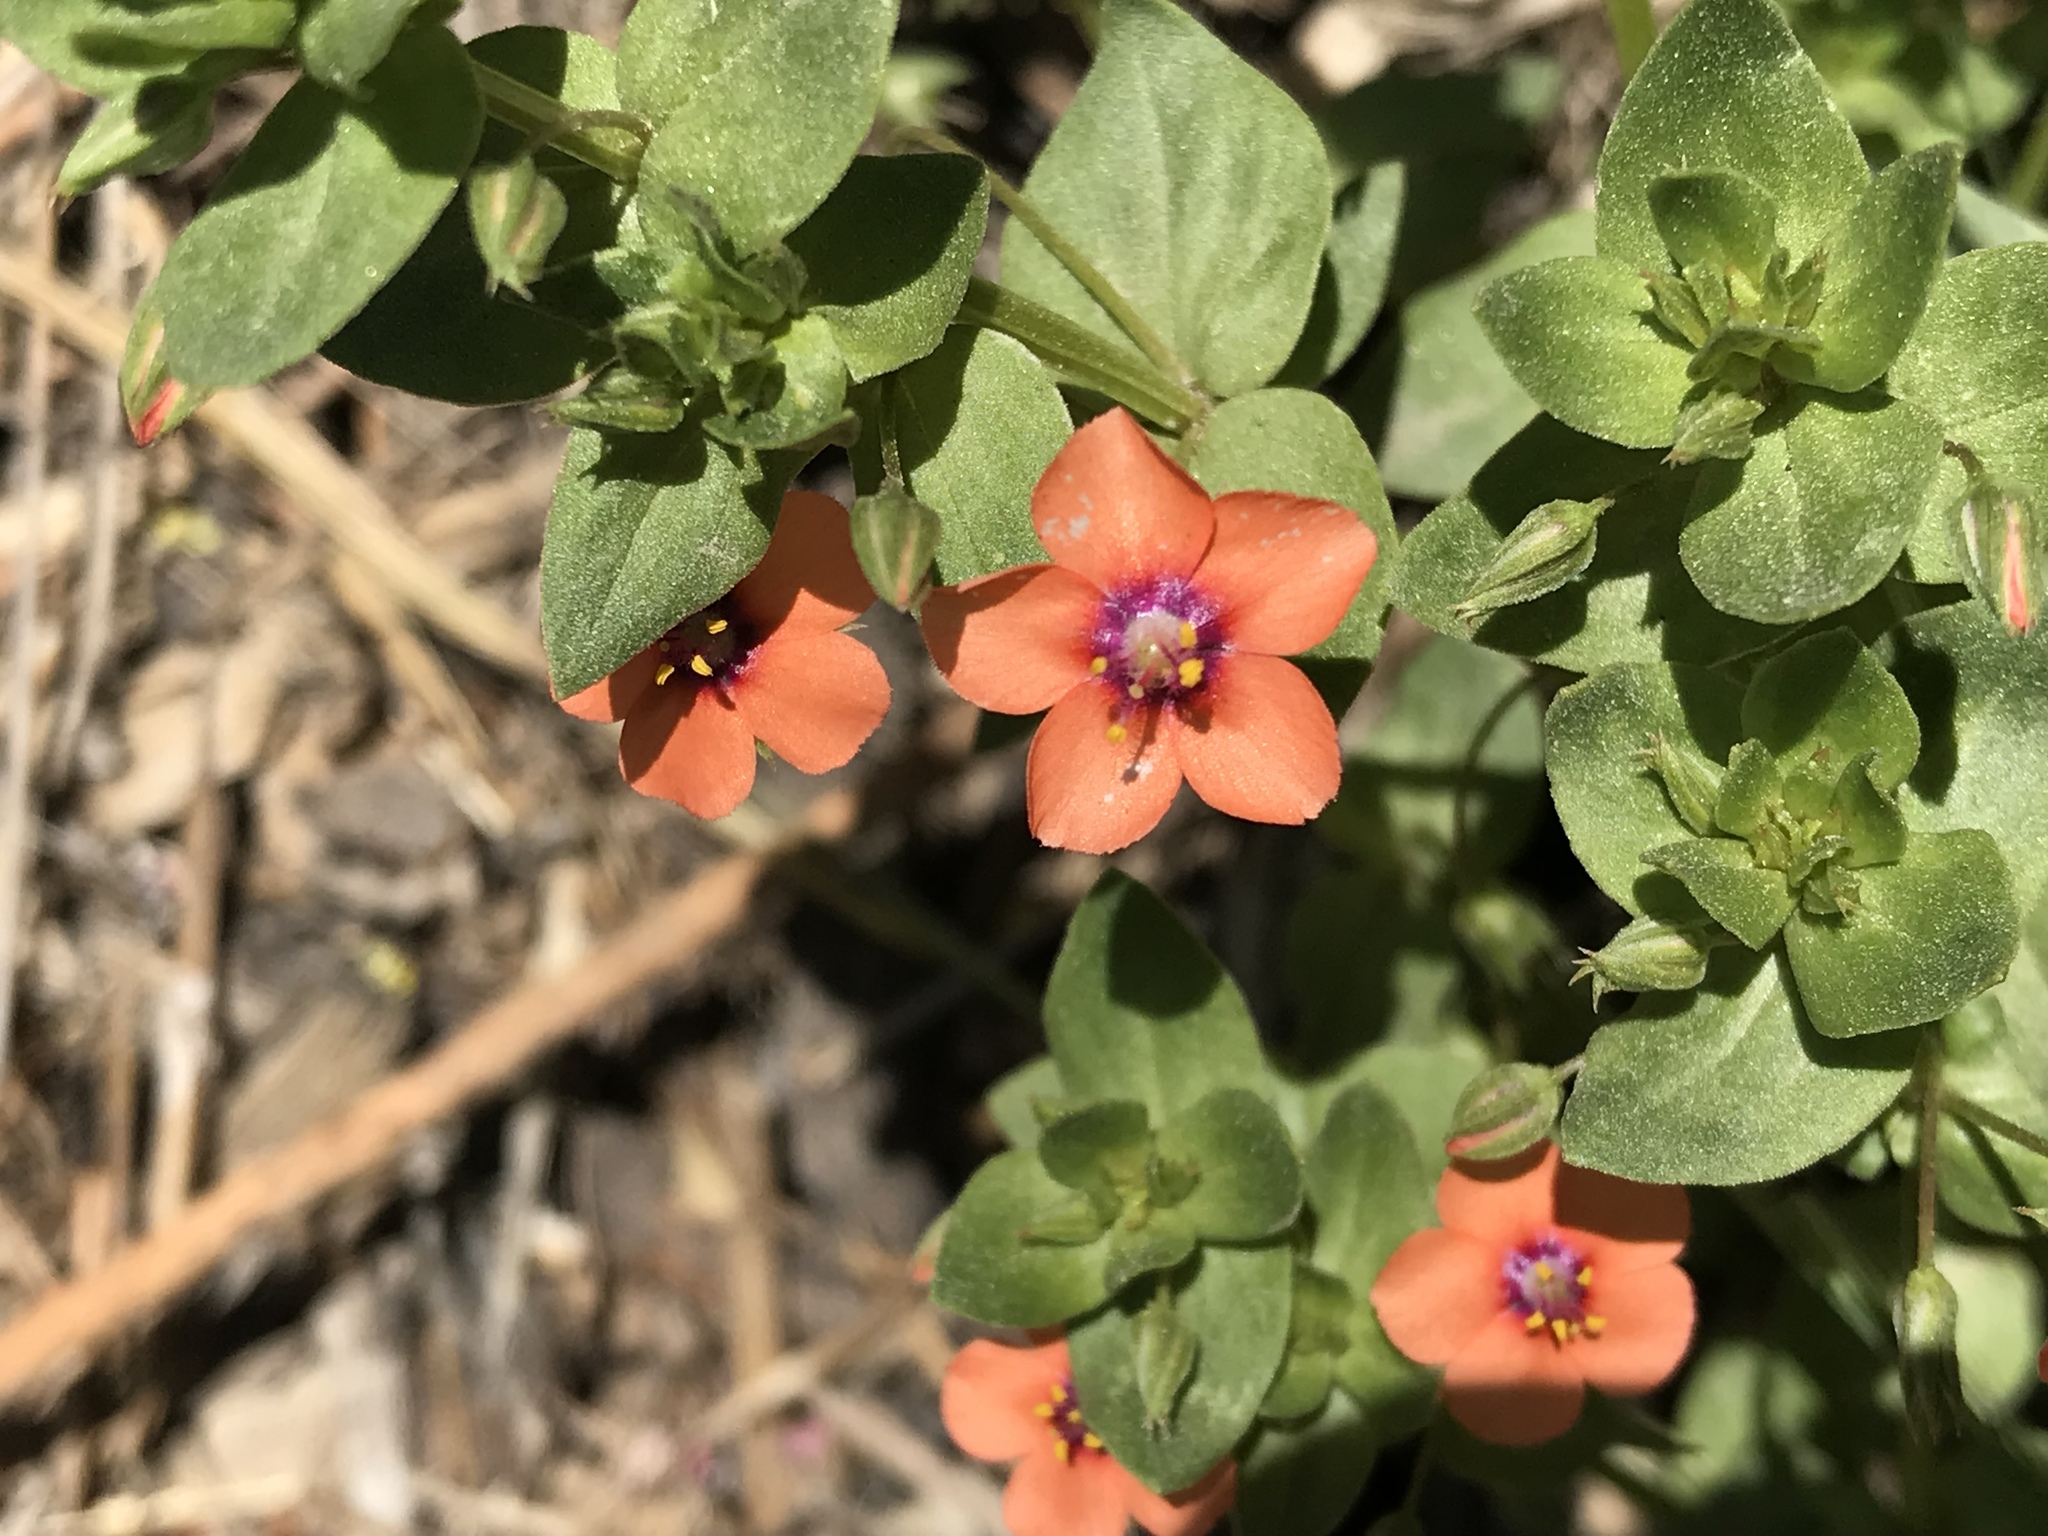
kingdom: Plantae
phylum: Tracheophyta
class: Magnoliopsida
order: Ericales
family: Primulaceae
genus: Lysimachia
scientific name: Lysimachia arvensis
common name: Scarlet pimpernel
